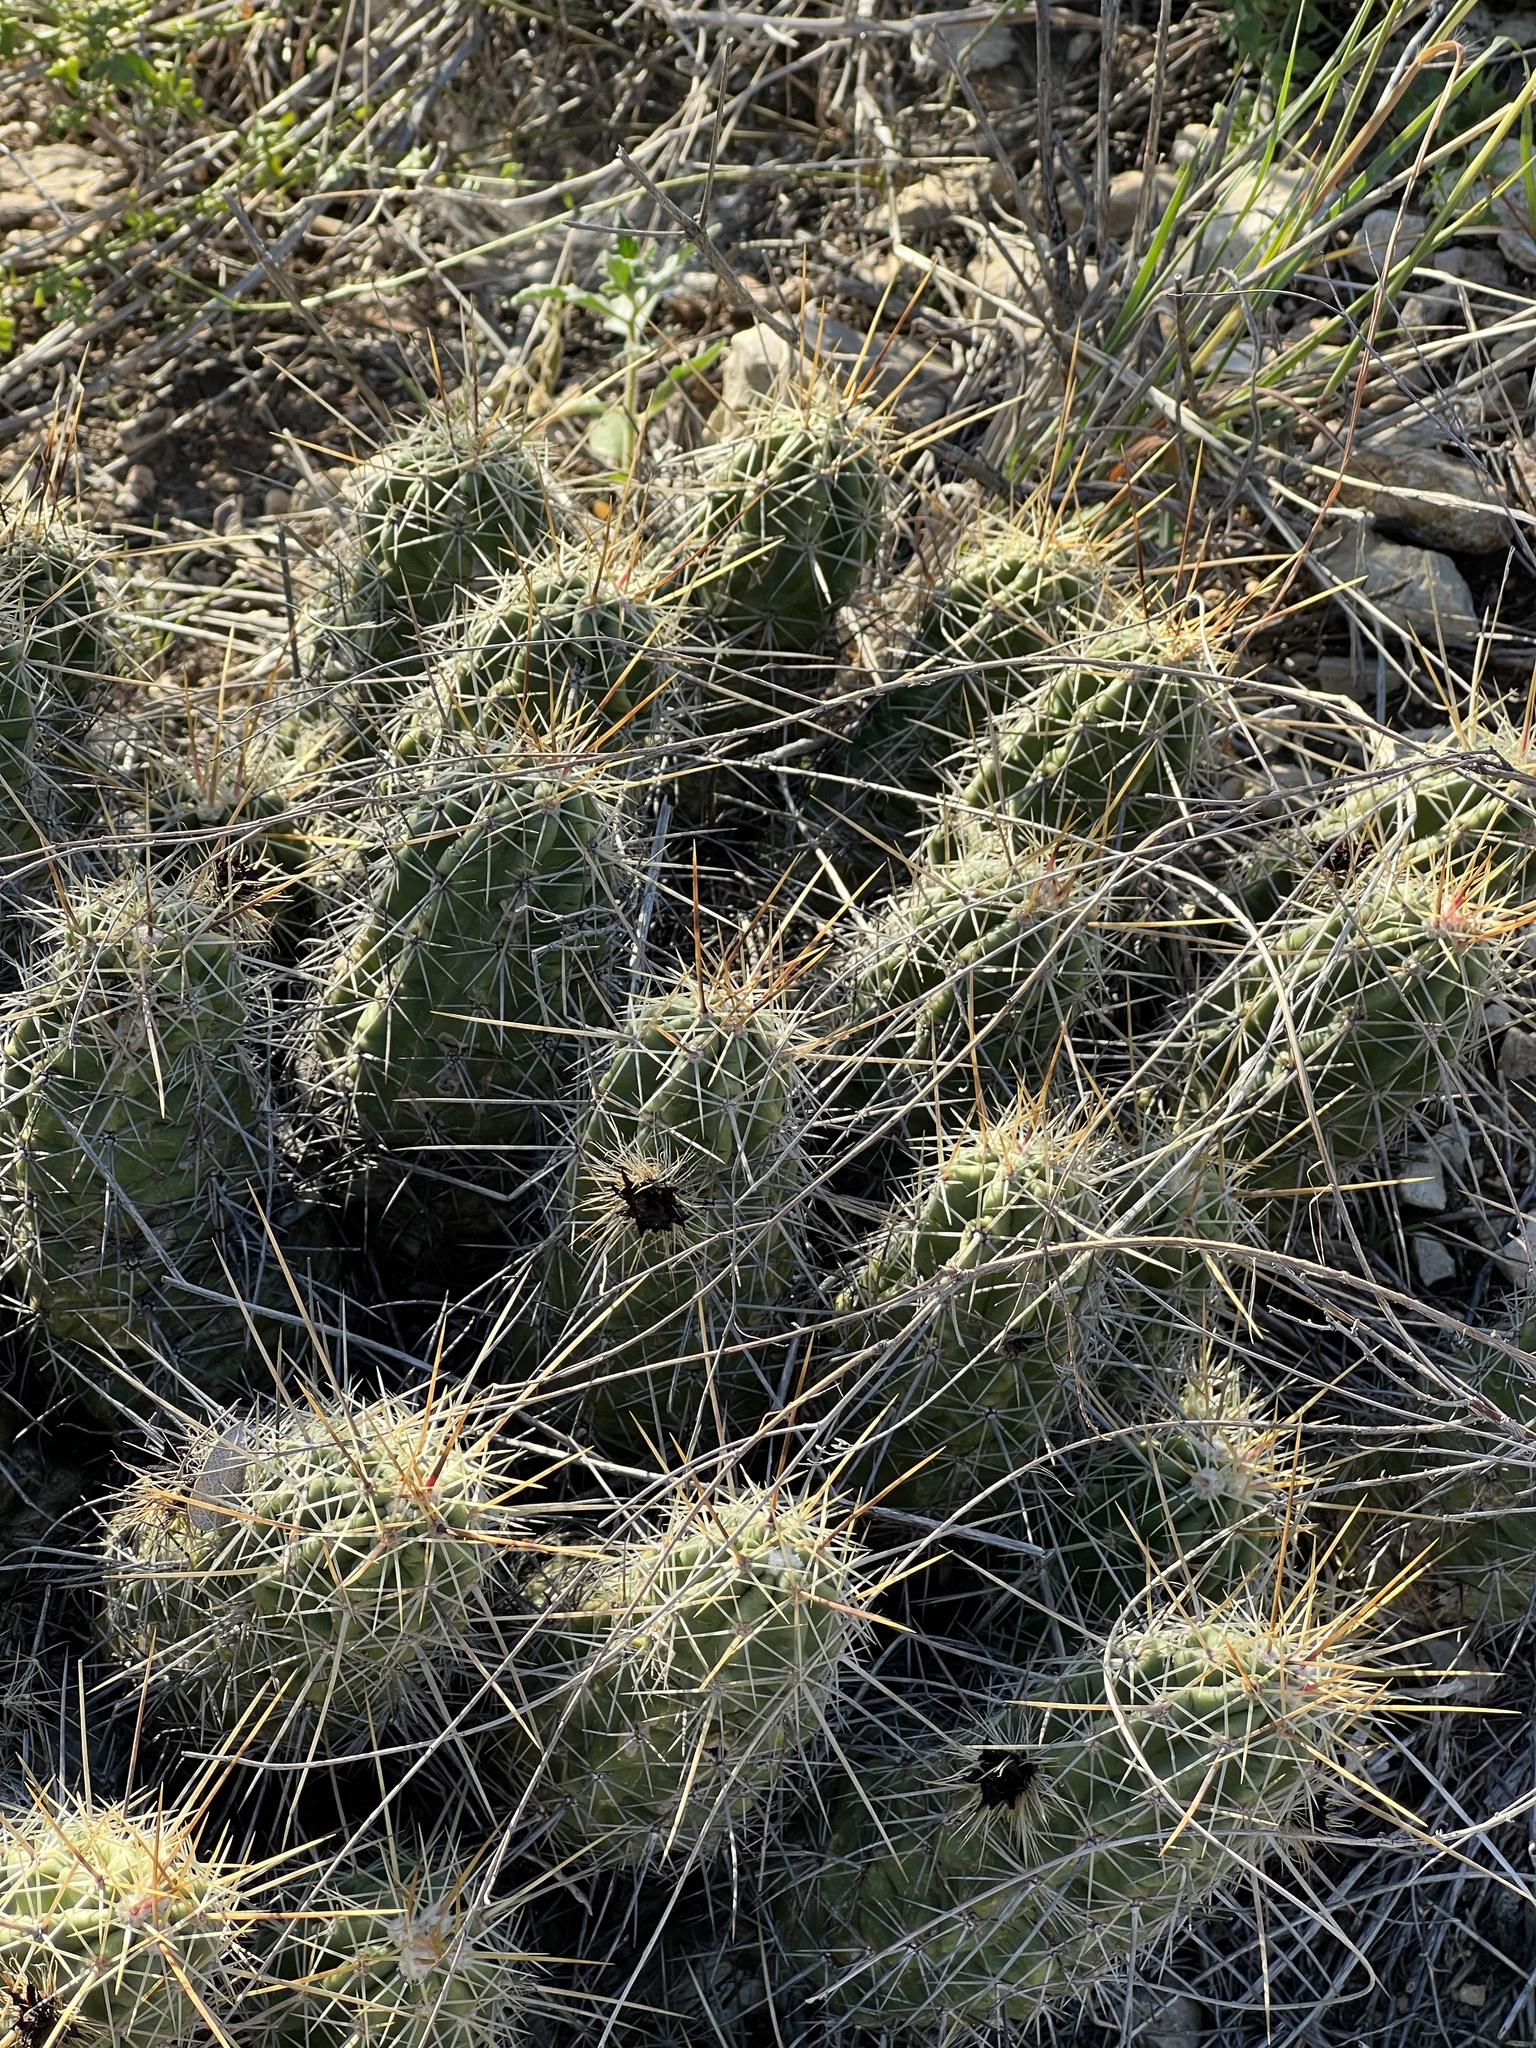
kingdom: Plantae
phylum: Tracheophyta
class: Magnoliopsida
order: Caryophyllales
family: Cactaceae
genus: Echinocereus
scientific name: Echinocereus enneacanthus
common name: Pitaya
